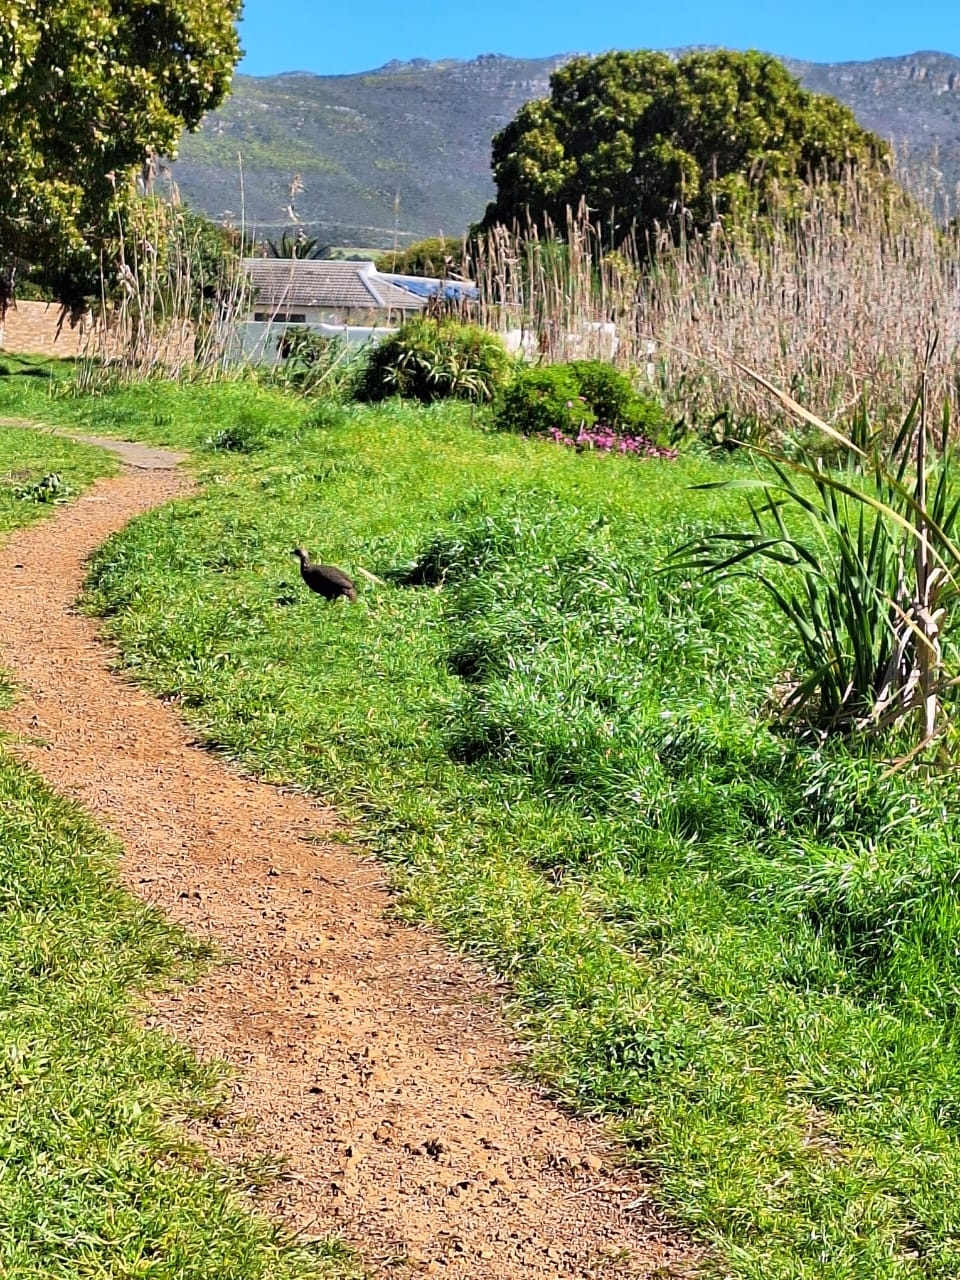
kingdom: Animalia
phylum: Chordata
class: Aves
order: Galliformes
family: Phasianidae
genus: Pternistis
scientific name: Pternistis capensis
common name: Cape spurfowl
